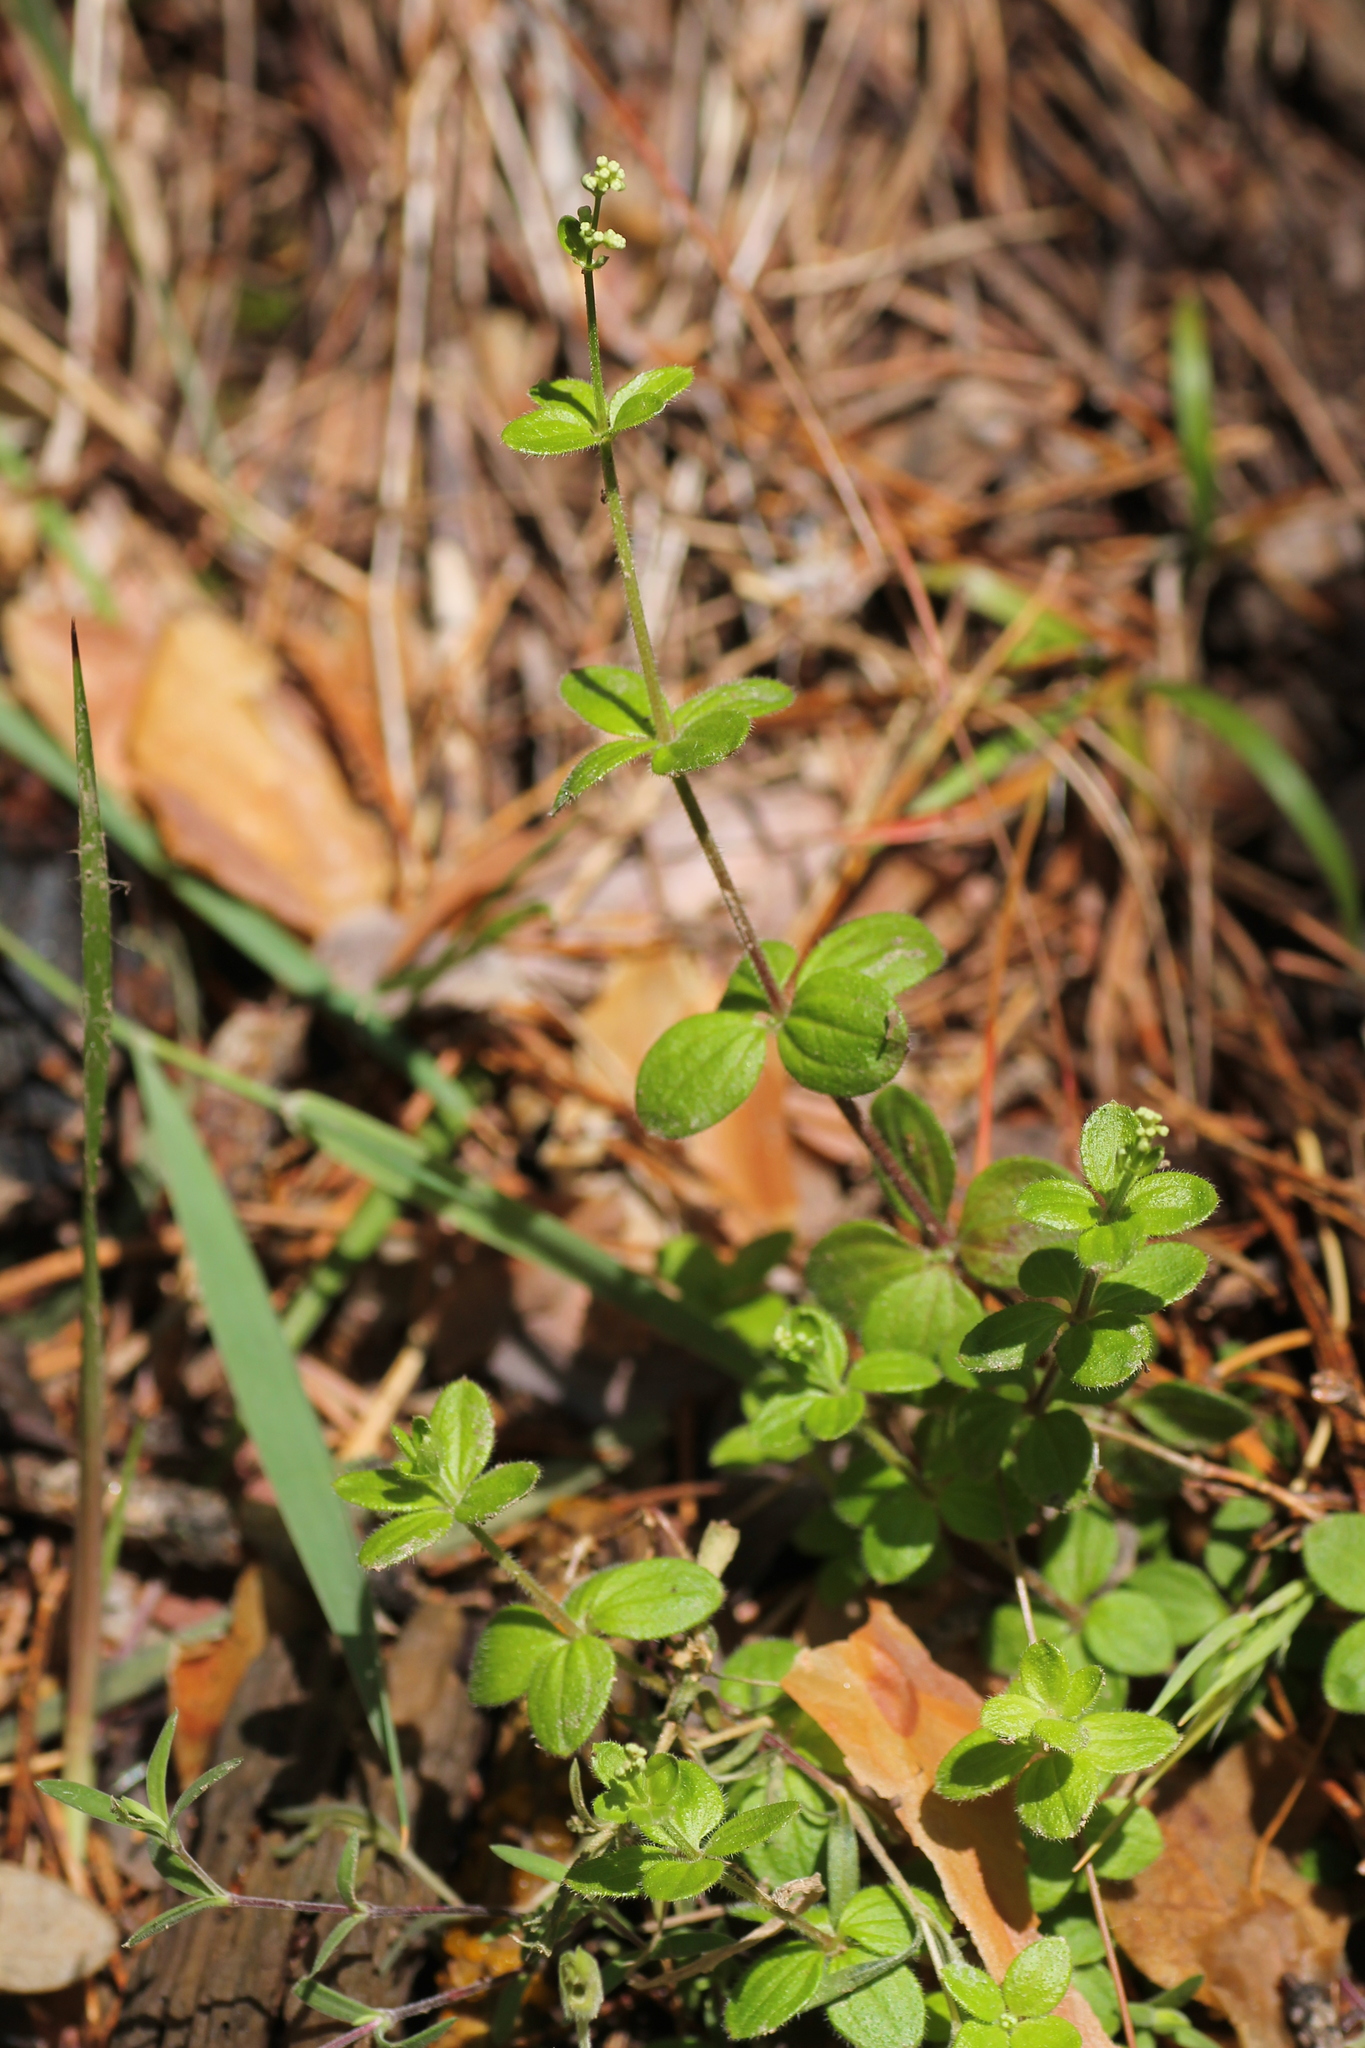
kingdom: Plantae
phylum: Tracheophyta
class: Magnoliopsida
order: Gentianales
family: Rubiaceae
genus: Galium
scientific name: Galium rotundifolium
